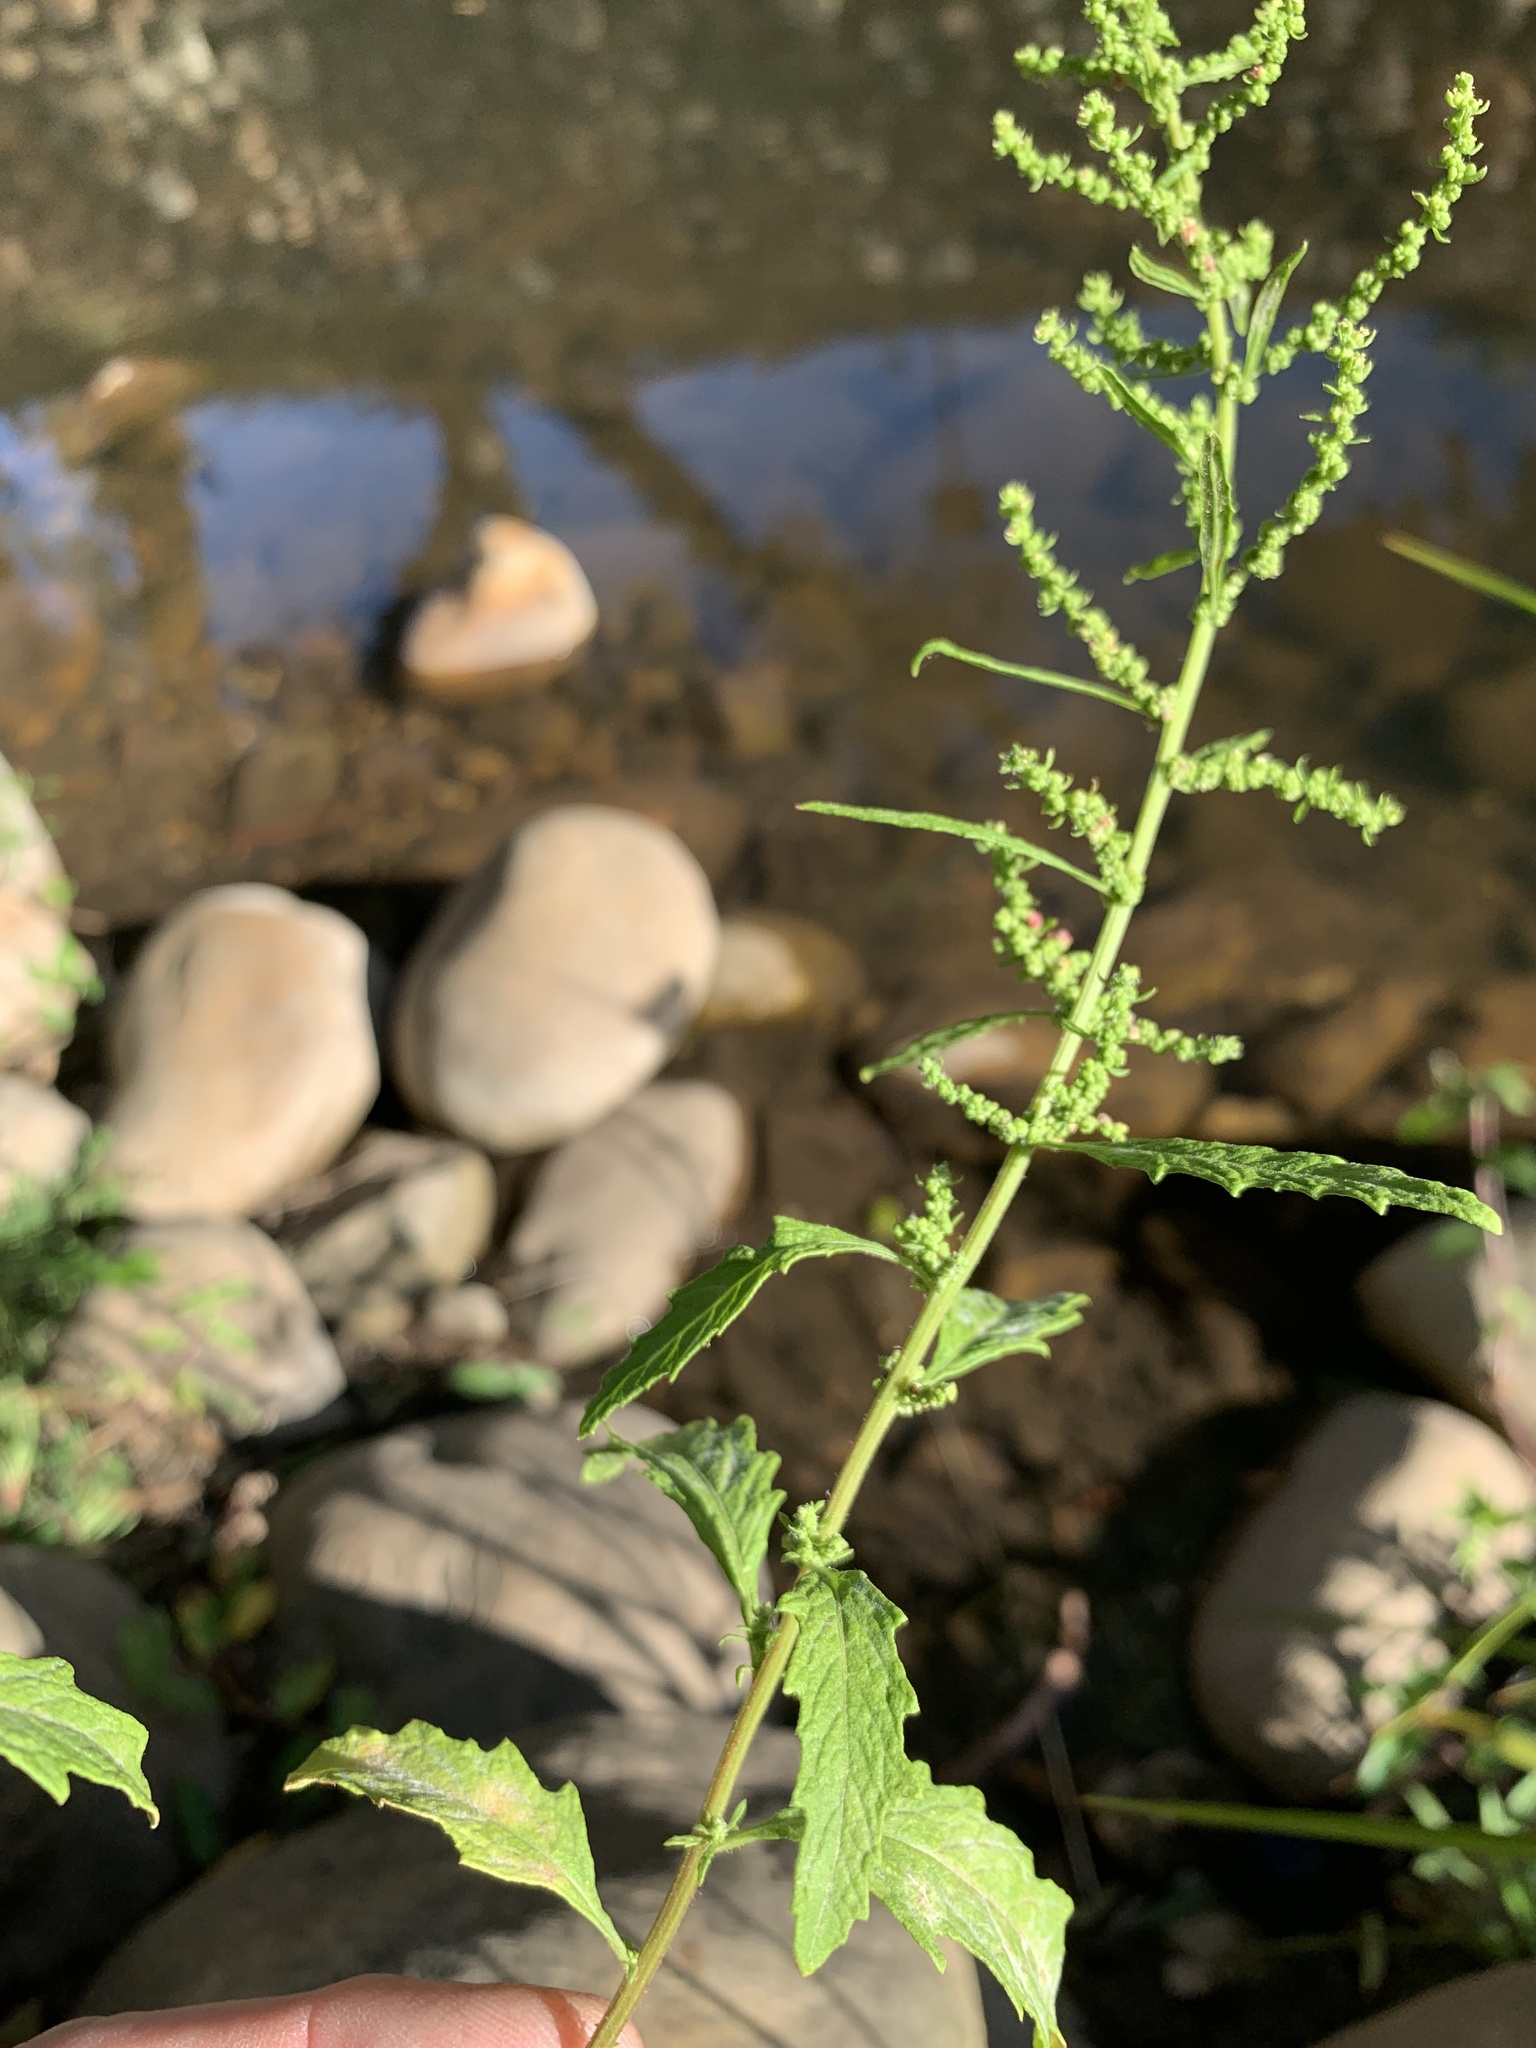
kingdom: Plantae
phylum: Tracheophyta
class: Magnoliopsida
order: Caryophyllales
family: Amaranthaceae
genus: Dysphania
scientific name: Dysphania ambrosioides
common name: Wormseed
